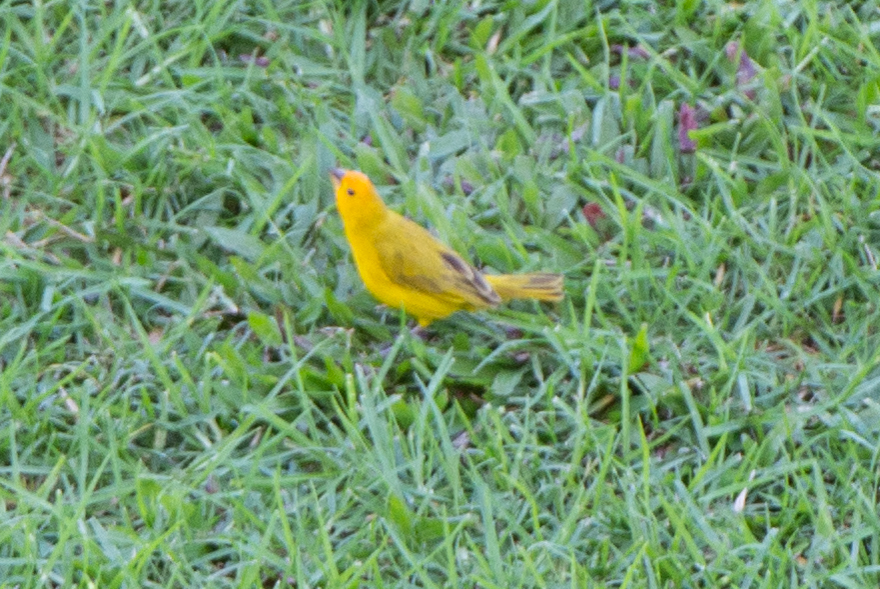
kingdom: Animalia
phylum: Chordata
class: Aves
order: Passeriformes
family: Thraupidae
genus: Sicalis
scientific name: Sicalis flaveola
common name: Saffron finch
